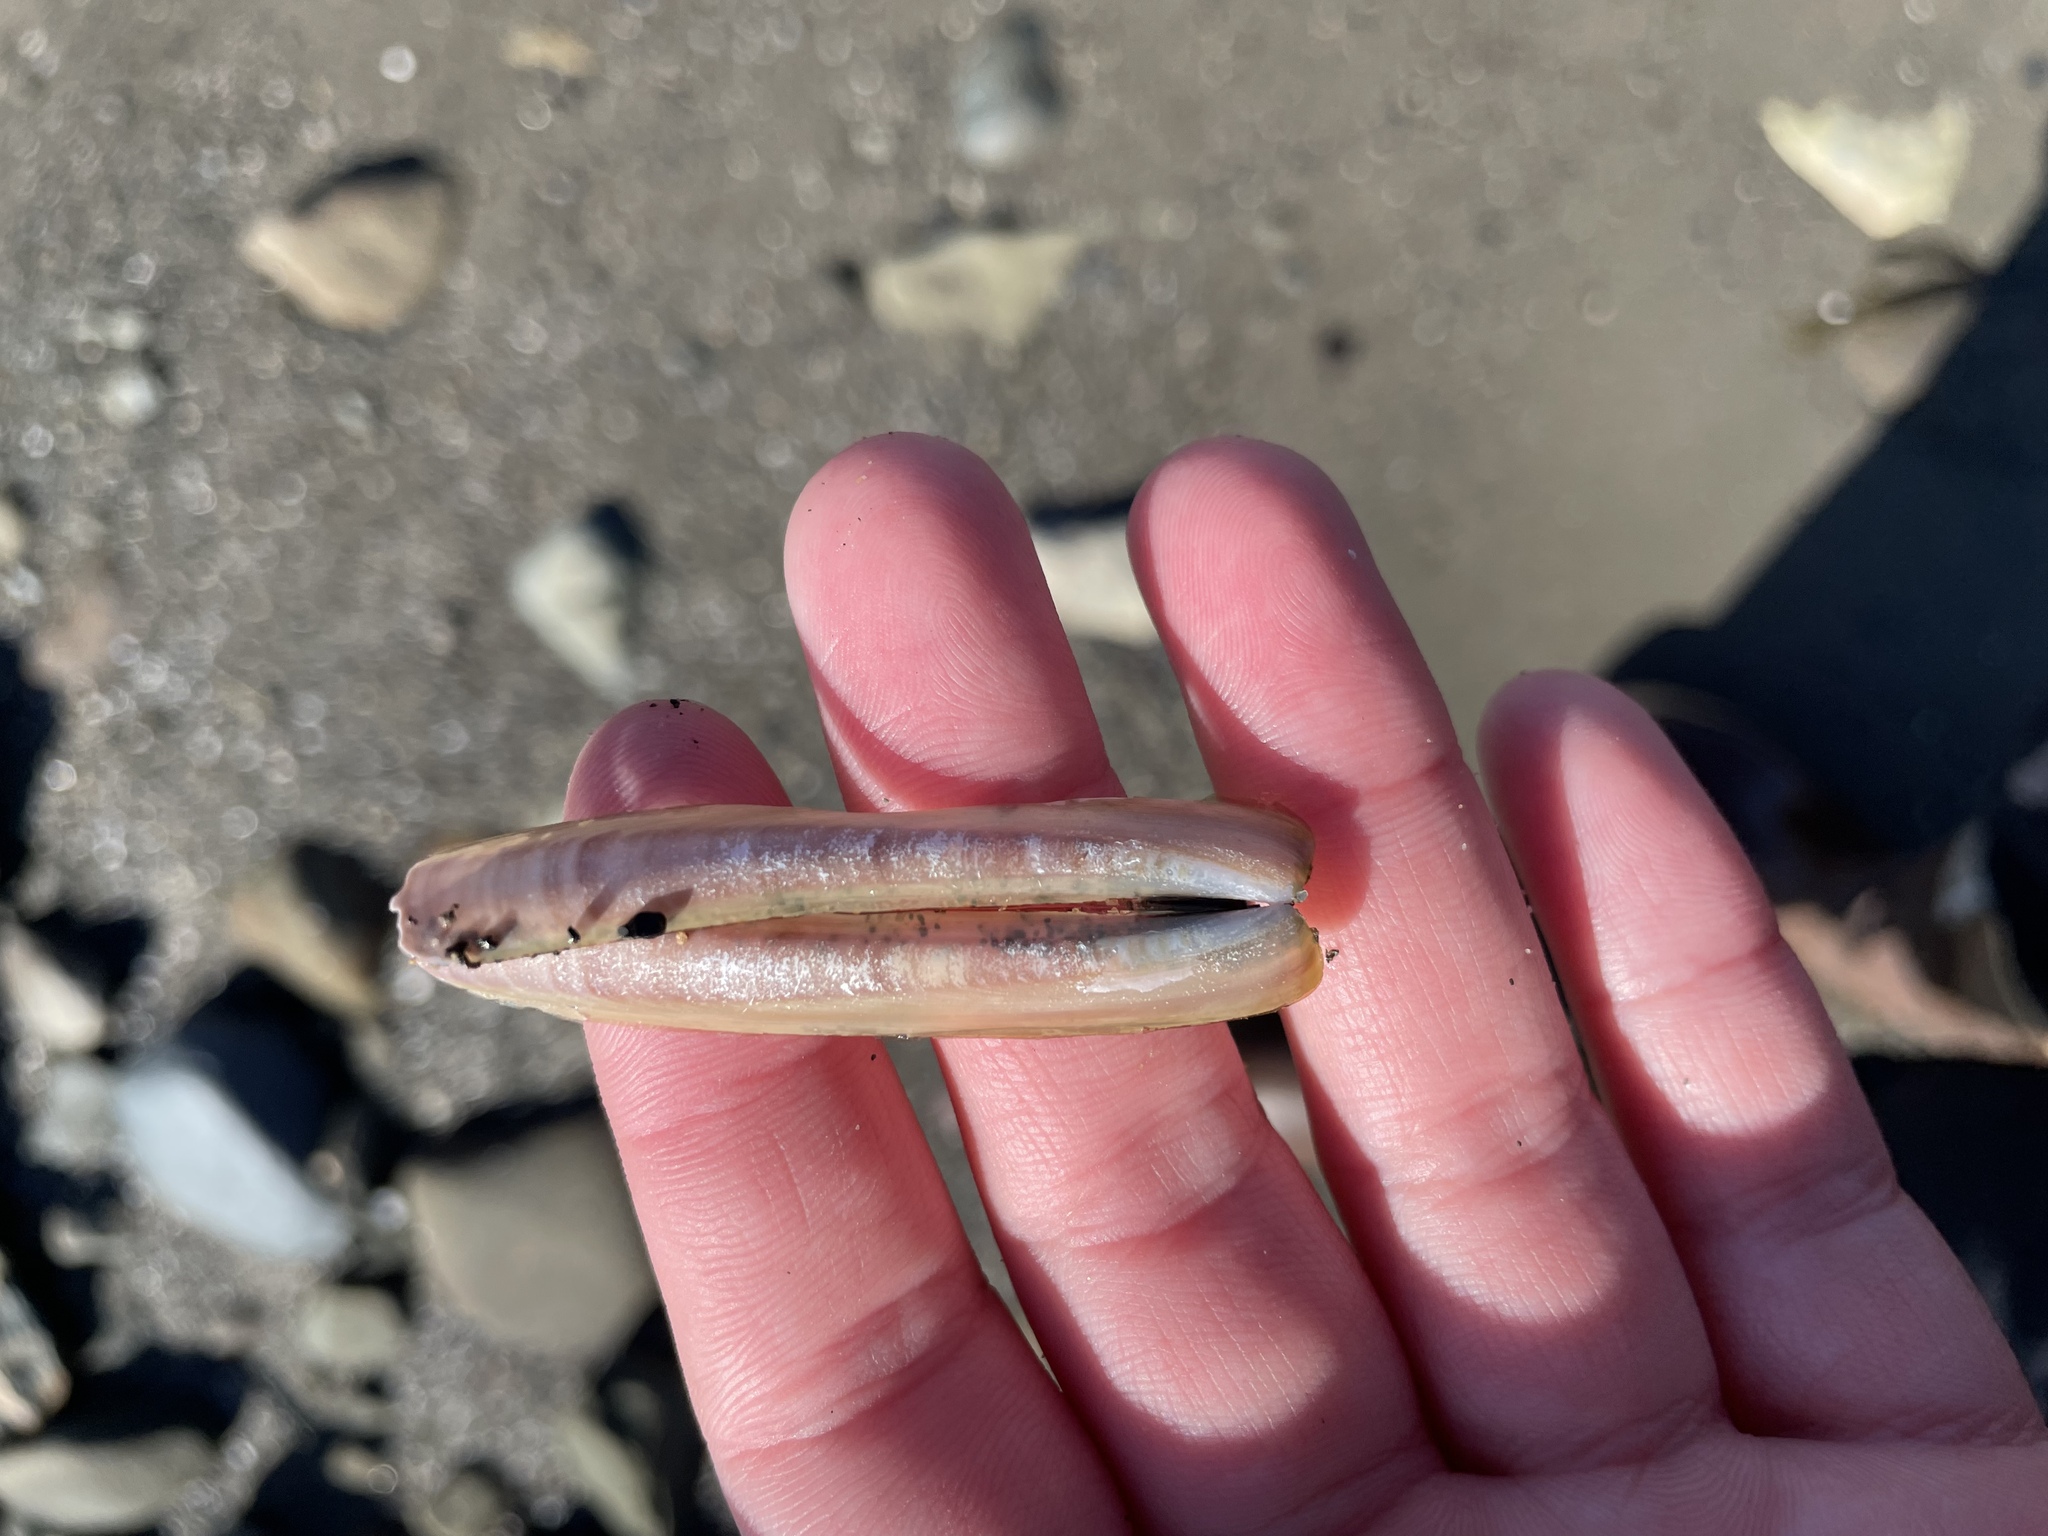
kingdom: Animalia
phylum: Mollusca
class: Bivalvia
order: Adapedonta
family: Pharidae
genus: Ensis
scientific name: Ensis leei
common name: American jack knife clam
